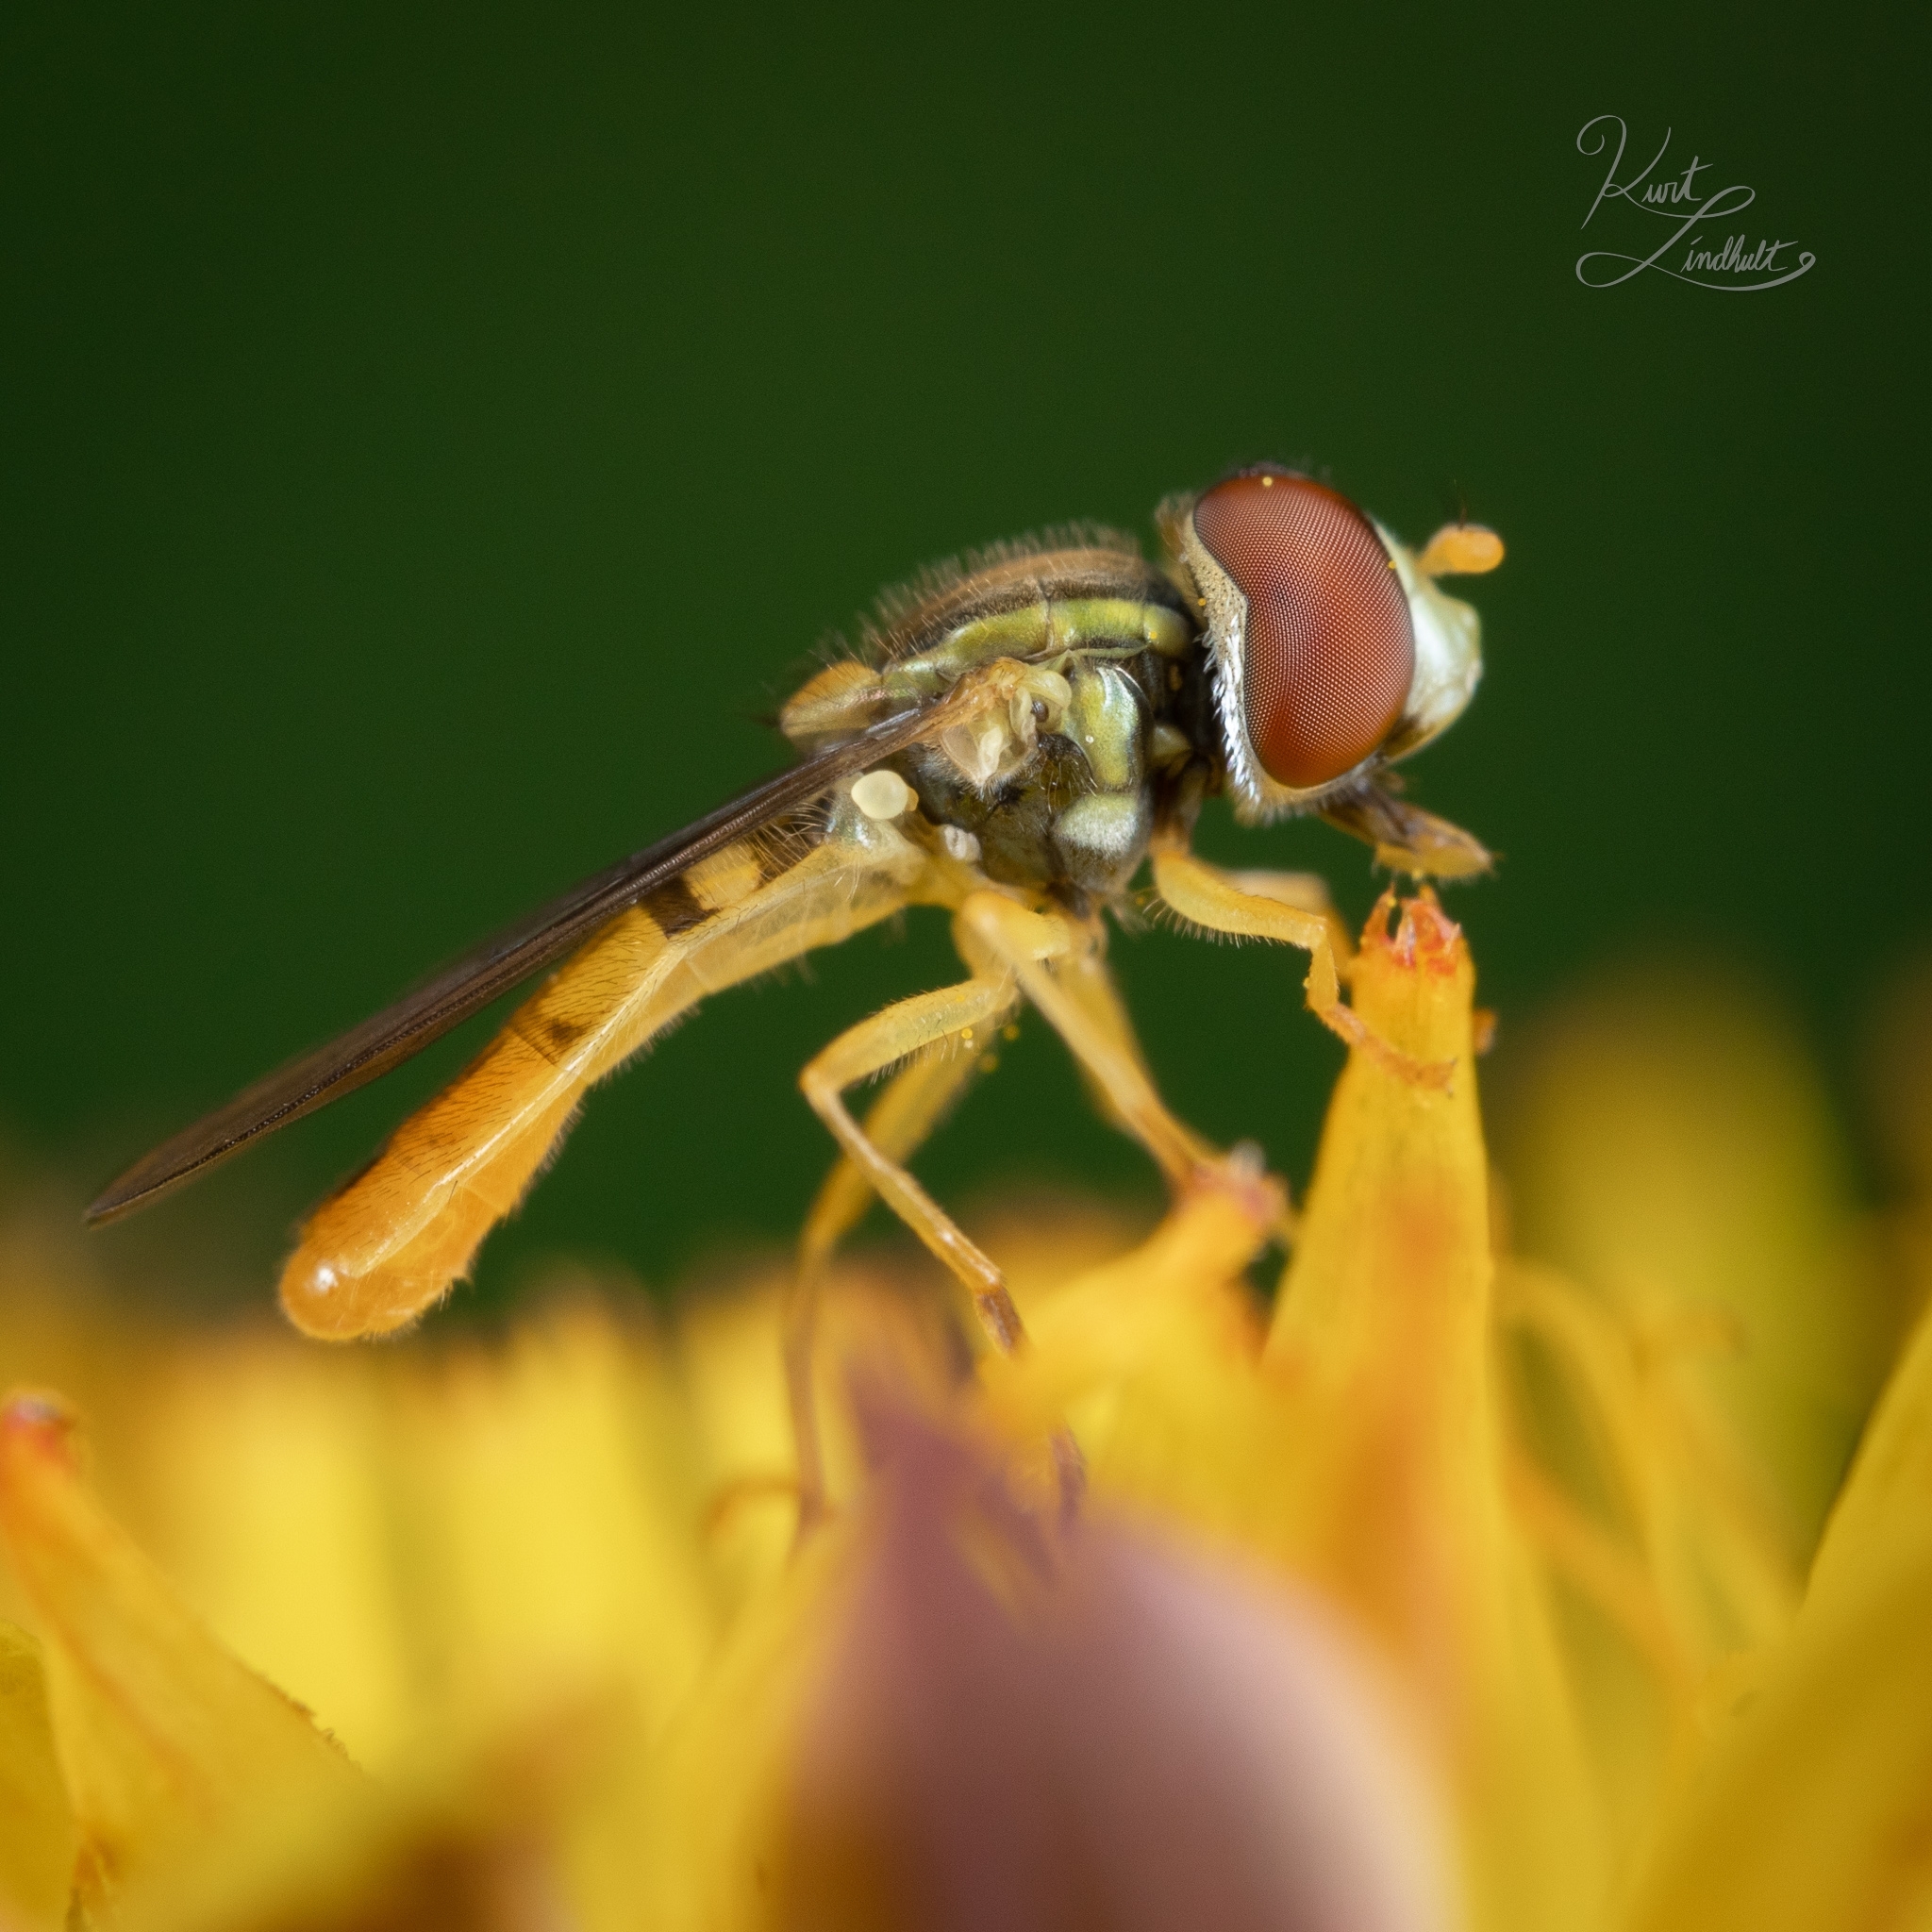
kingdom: Animalia
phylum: Arthropoda
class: Insecta
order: Diptera
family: Syrphidae
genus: Toxomerus
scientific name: Toxomerus marginatus
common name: Syrphid fly
